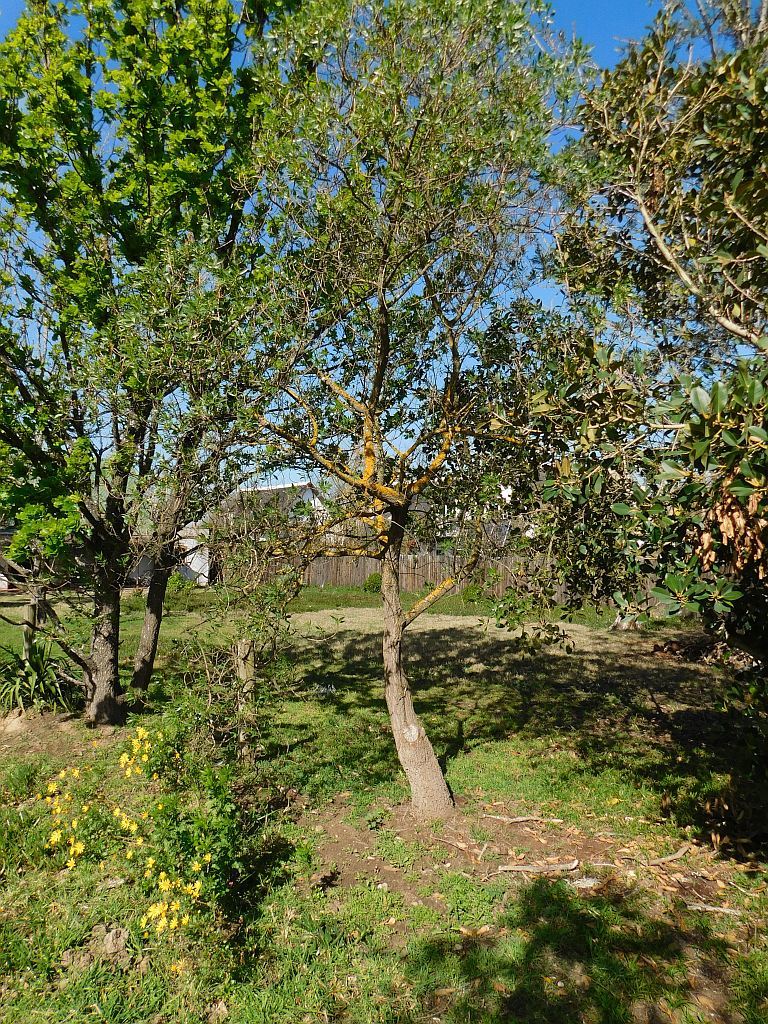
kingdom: Plantae
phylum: Tracheophyta
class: Magnoliopsida
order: Lamiales
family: Scrophulariaceae
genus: Myoporum
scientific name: Myoporum insulare
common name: Common boobialla
